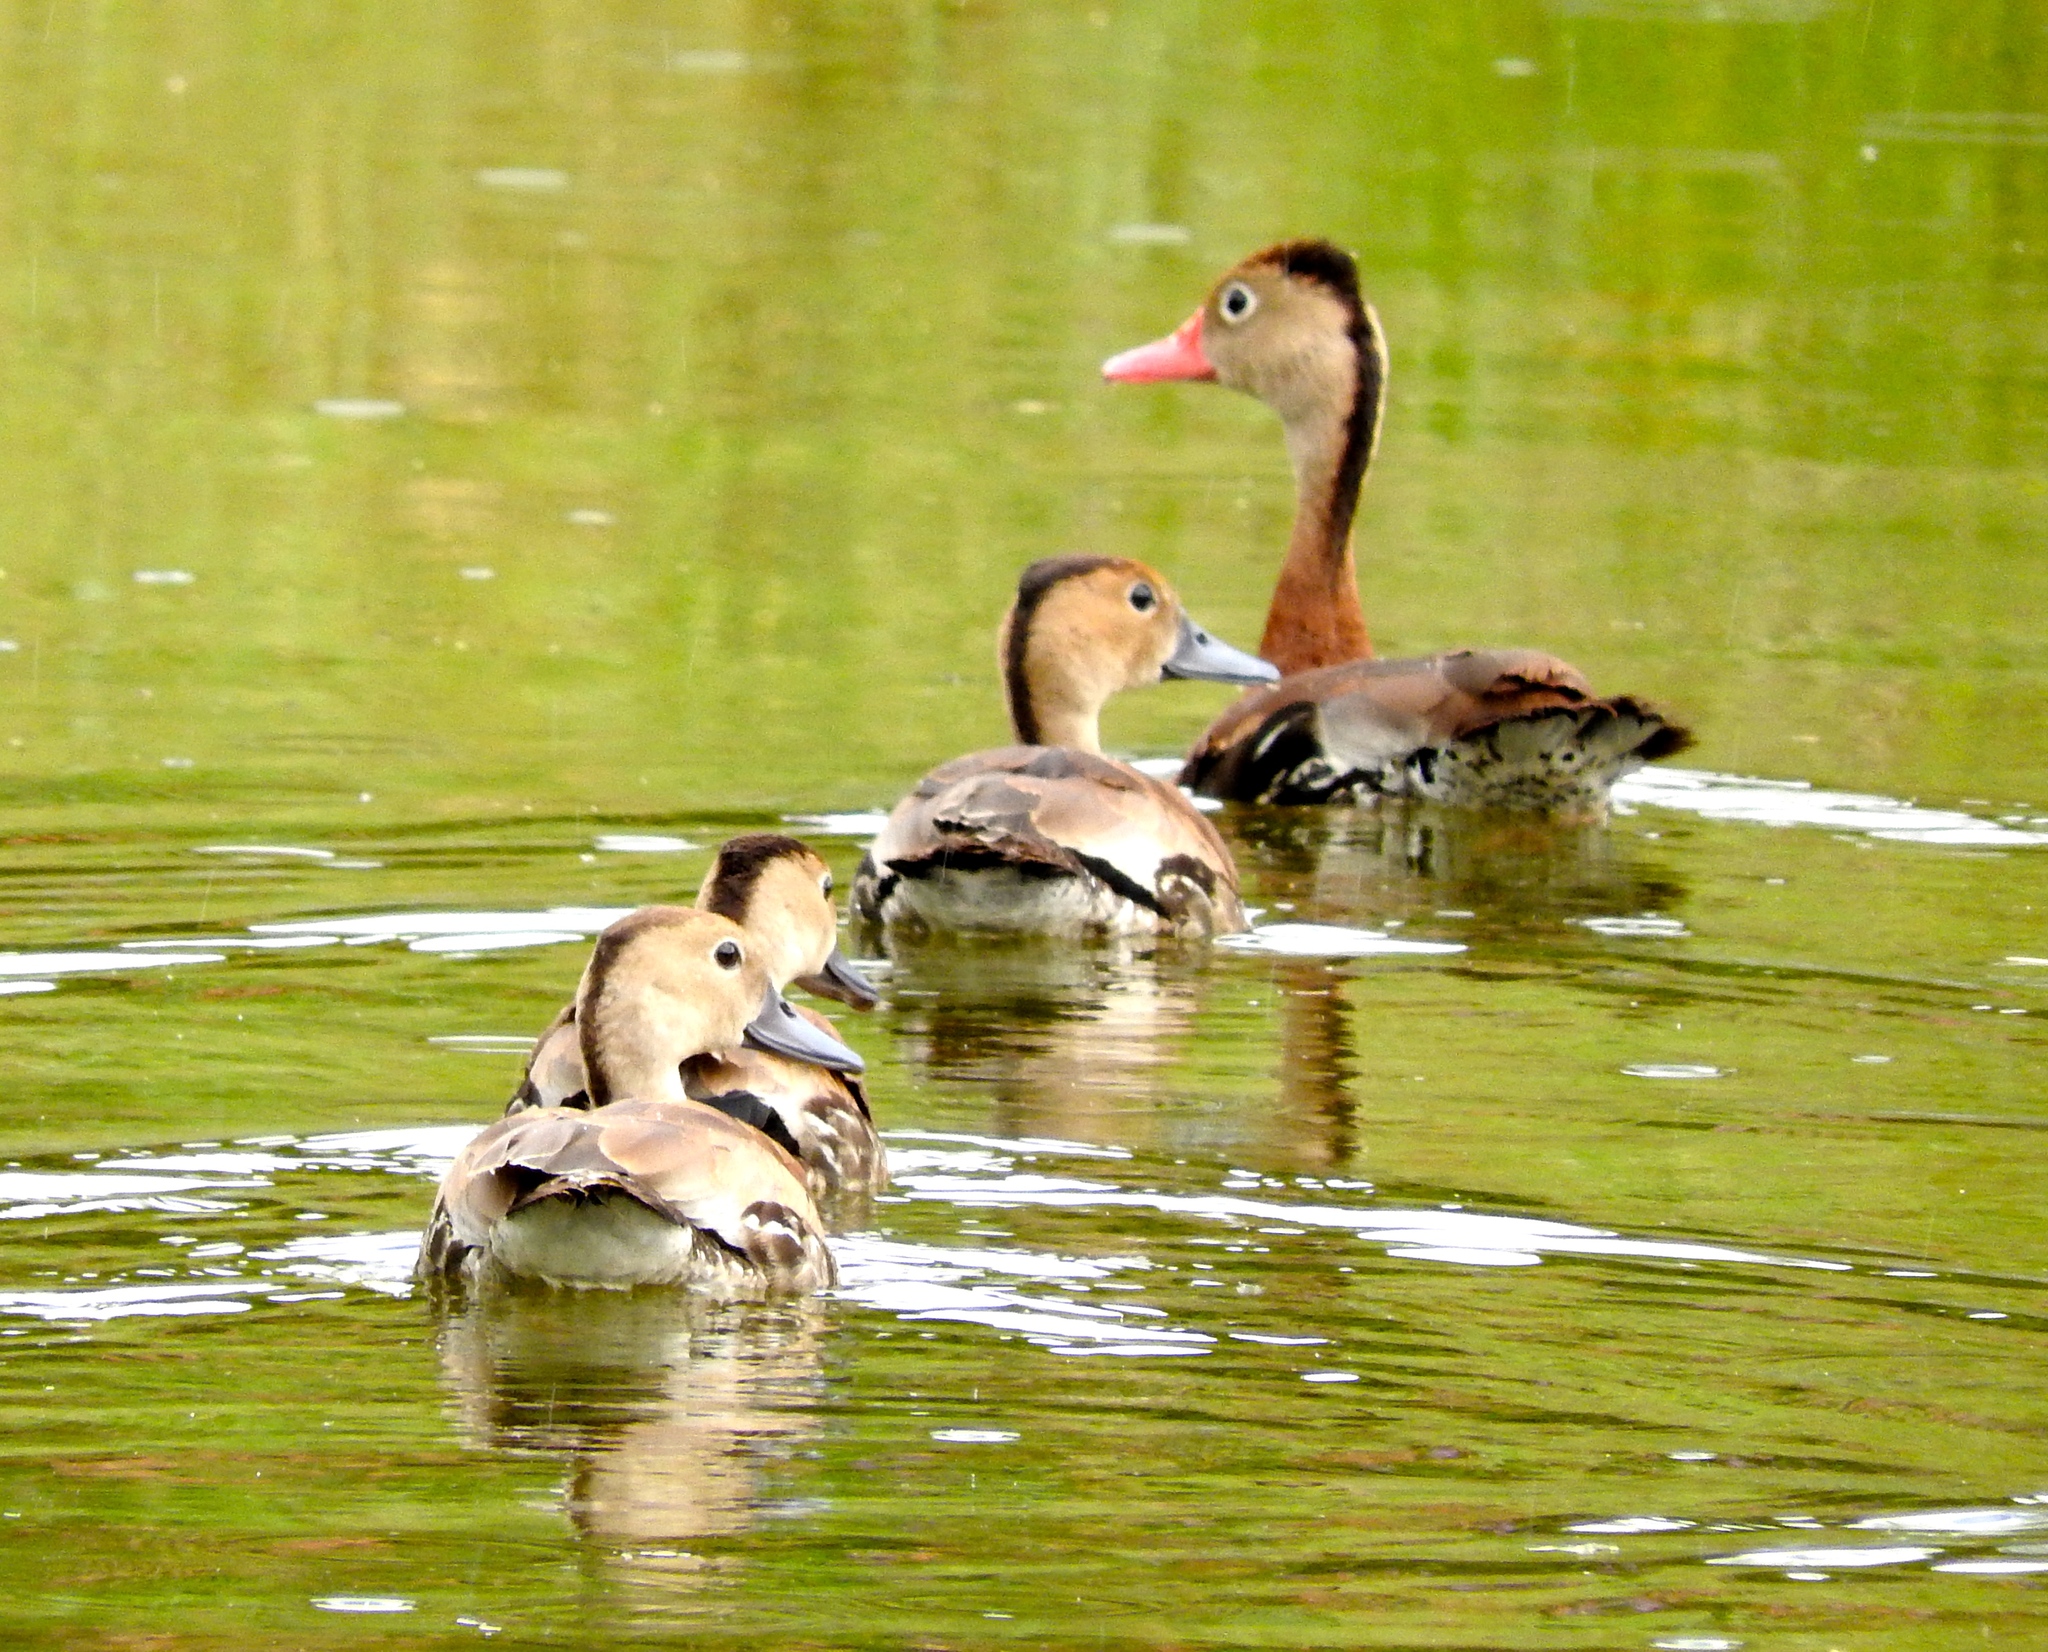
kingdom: Animalia
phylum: Chordata
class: Aves
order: Anseriformes
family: Anatidae
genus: Dendrocygna
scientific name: Dendrocygna autumnalis
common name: Black-bellied whistling duck
